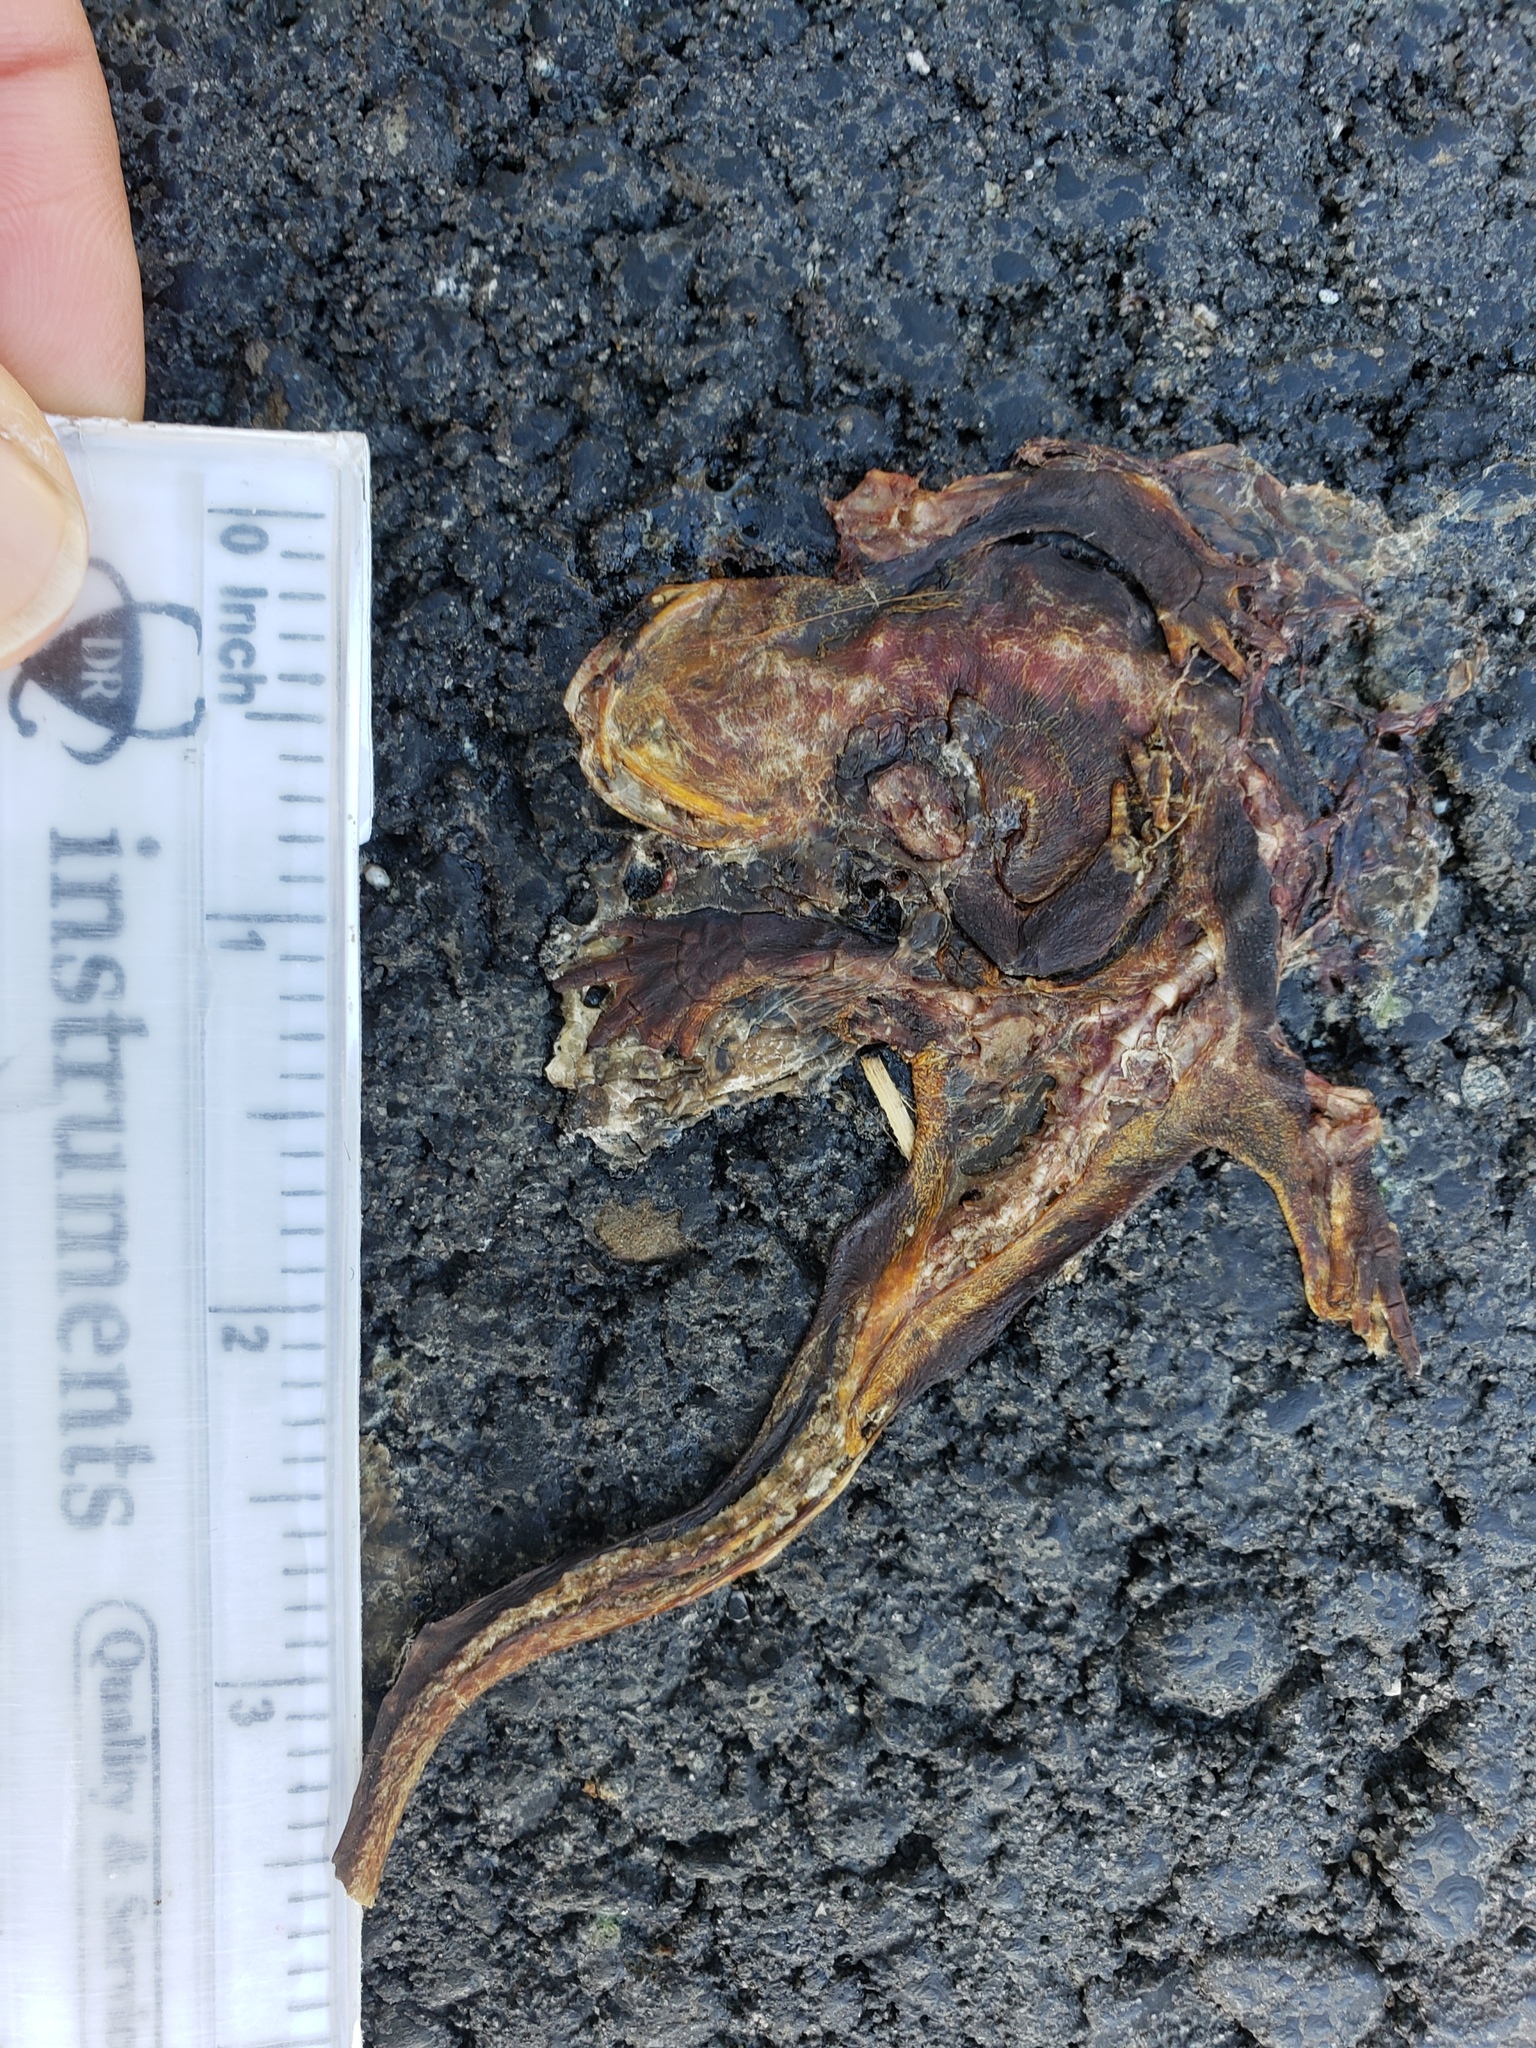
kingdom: Animalia
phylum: Chordata
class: Amphibia
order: Caudata
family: Salamandridae
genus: Taricha
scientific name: Taricha
